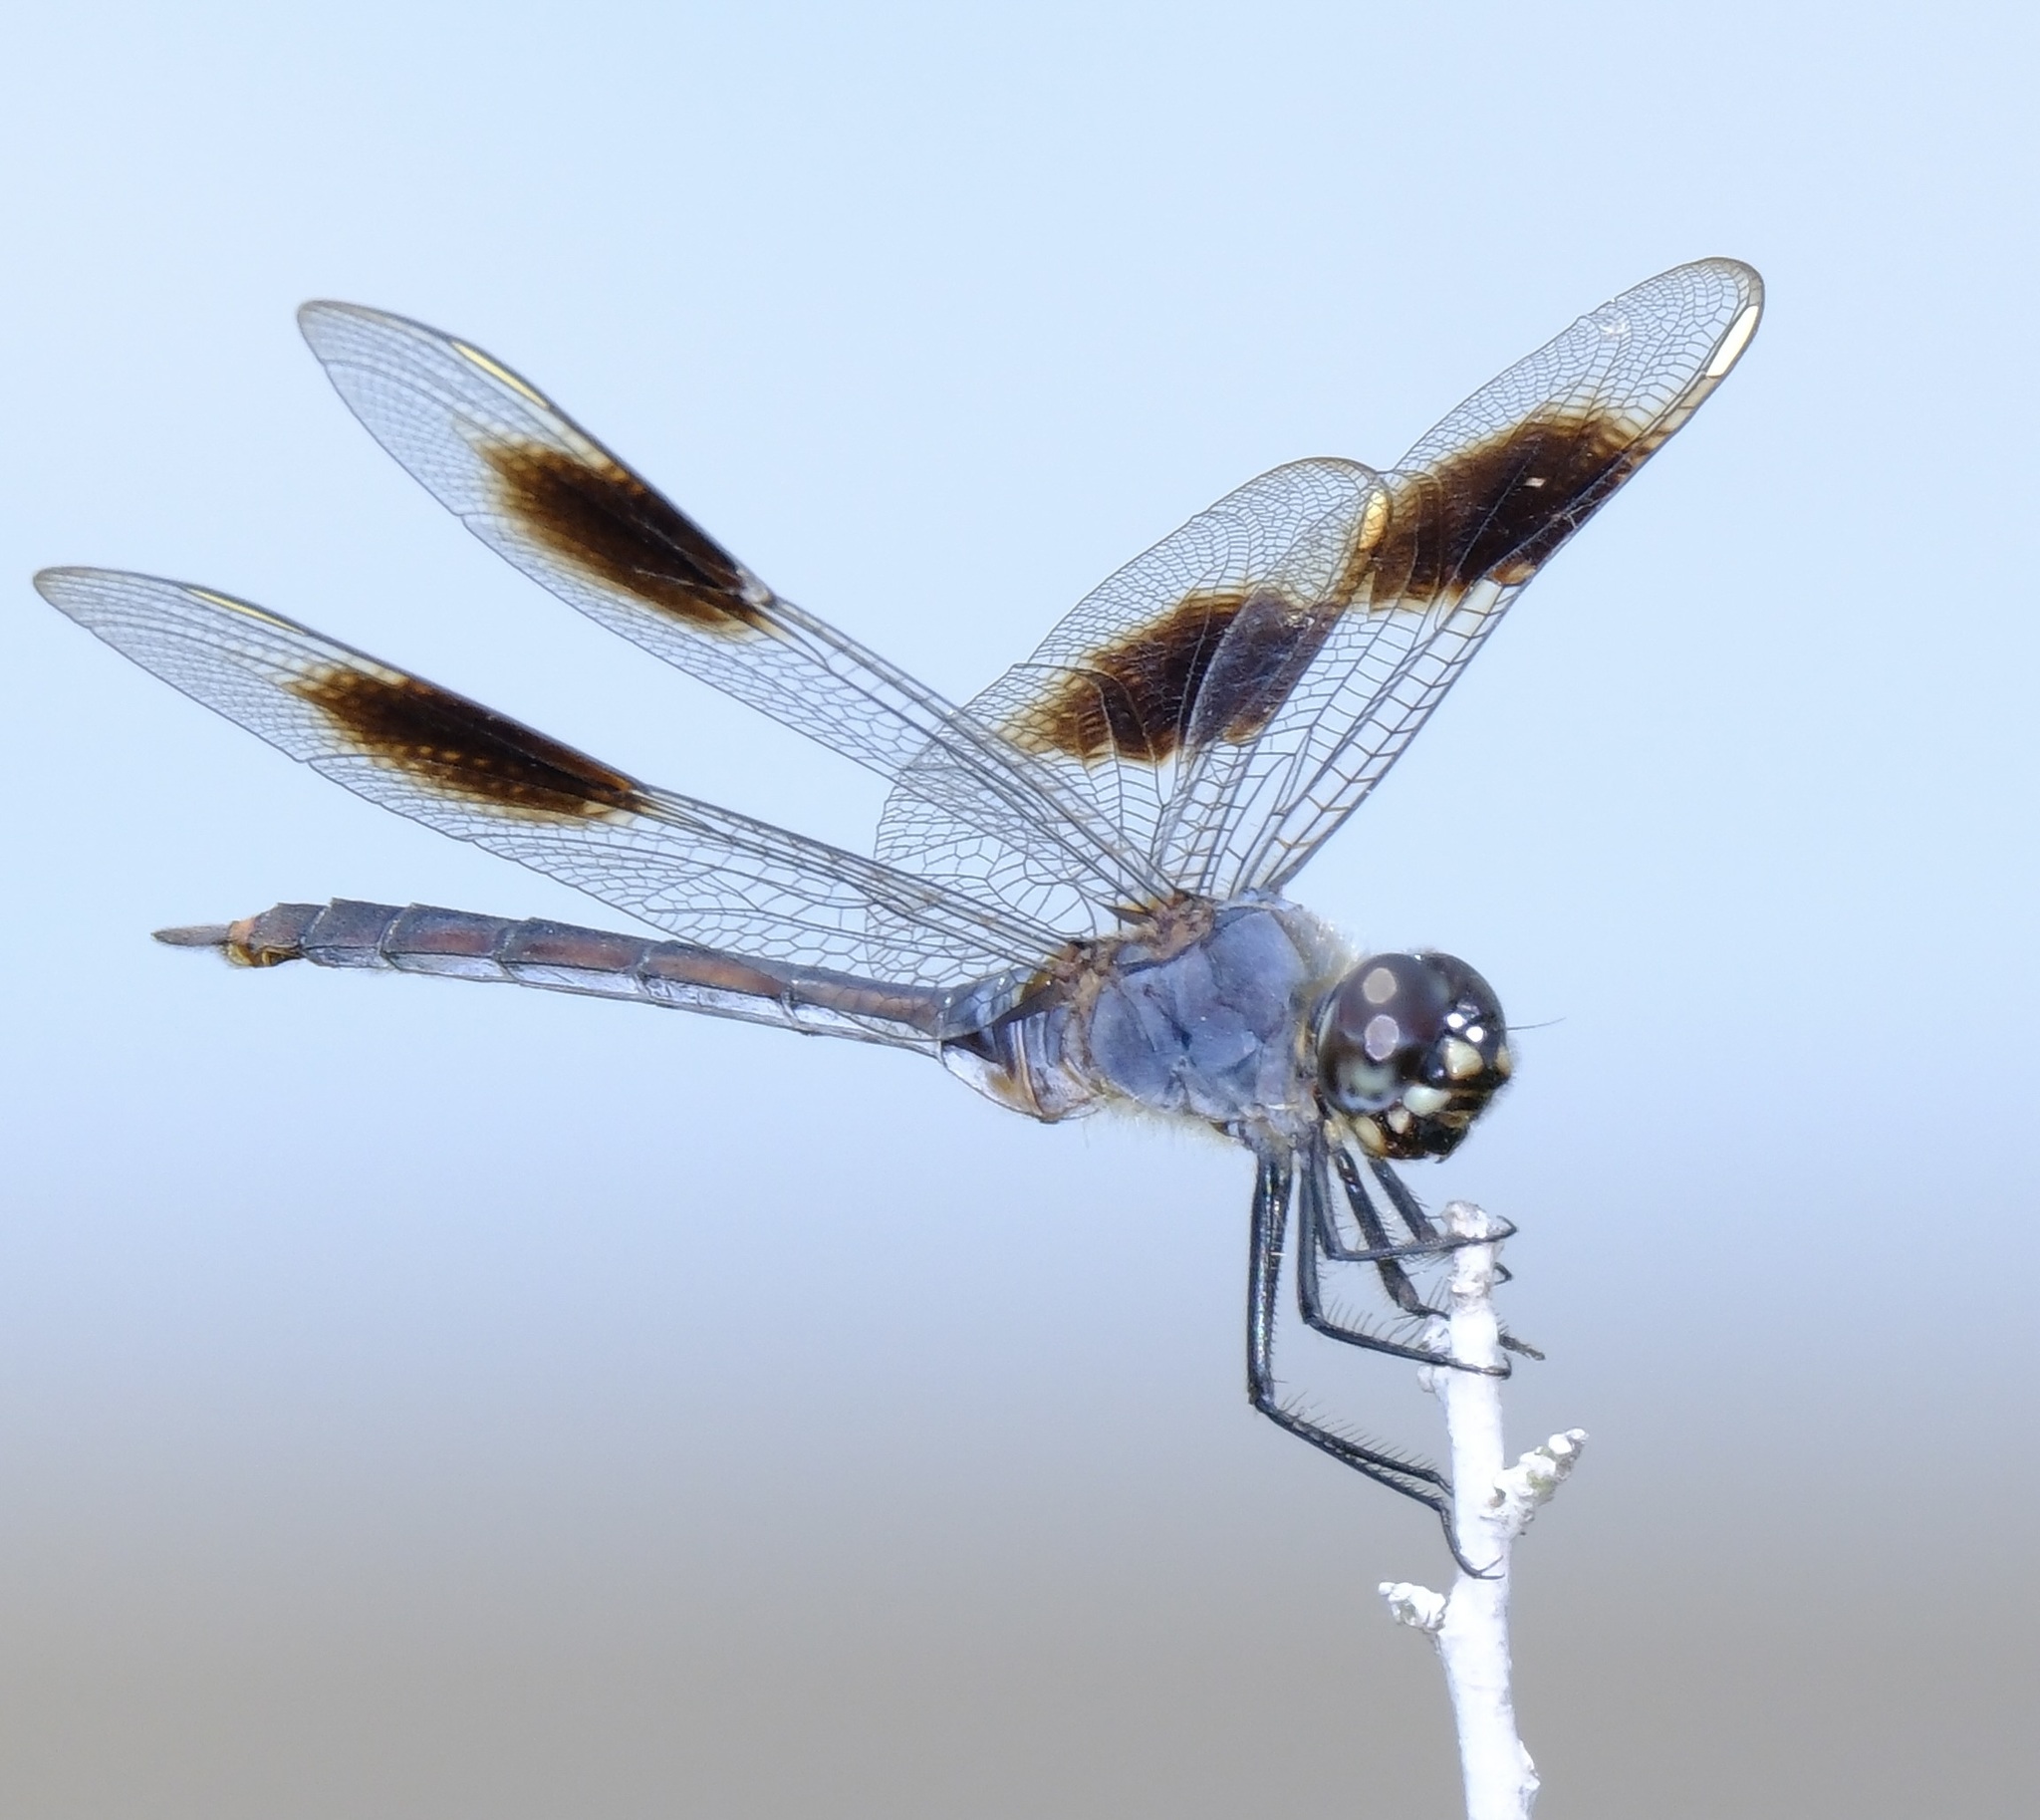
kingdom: Animalia
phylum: Arthropoda
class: Insecta
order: Odonata
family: Libellulidae
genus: Brachymesia
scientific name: Brachymesia gravida
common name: Four-spotted pennant
